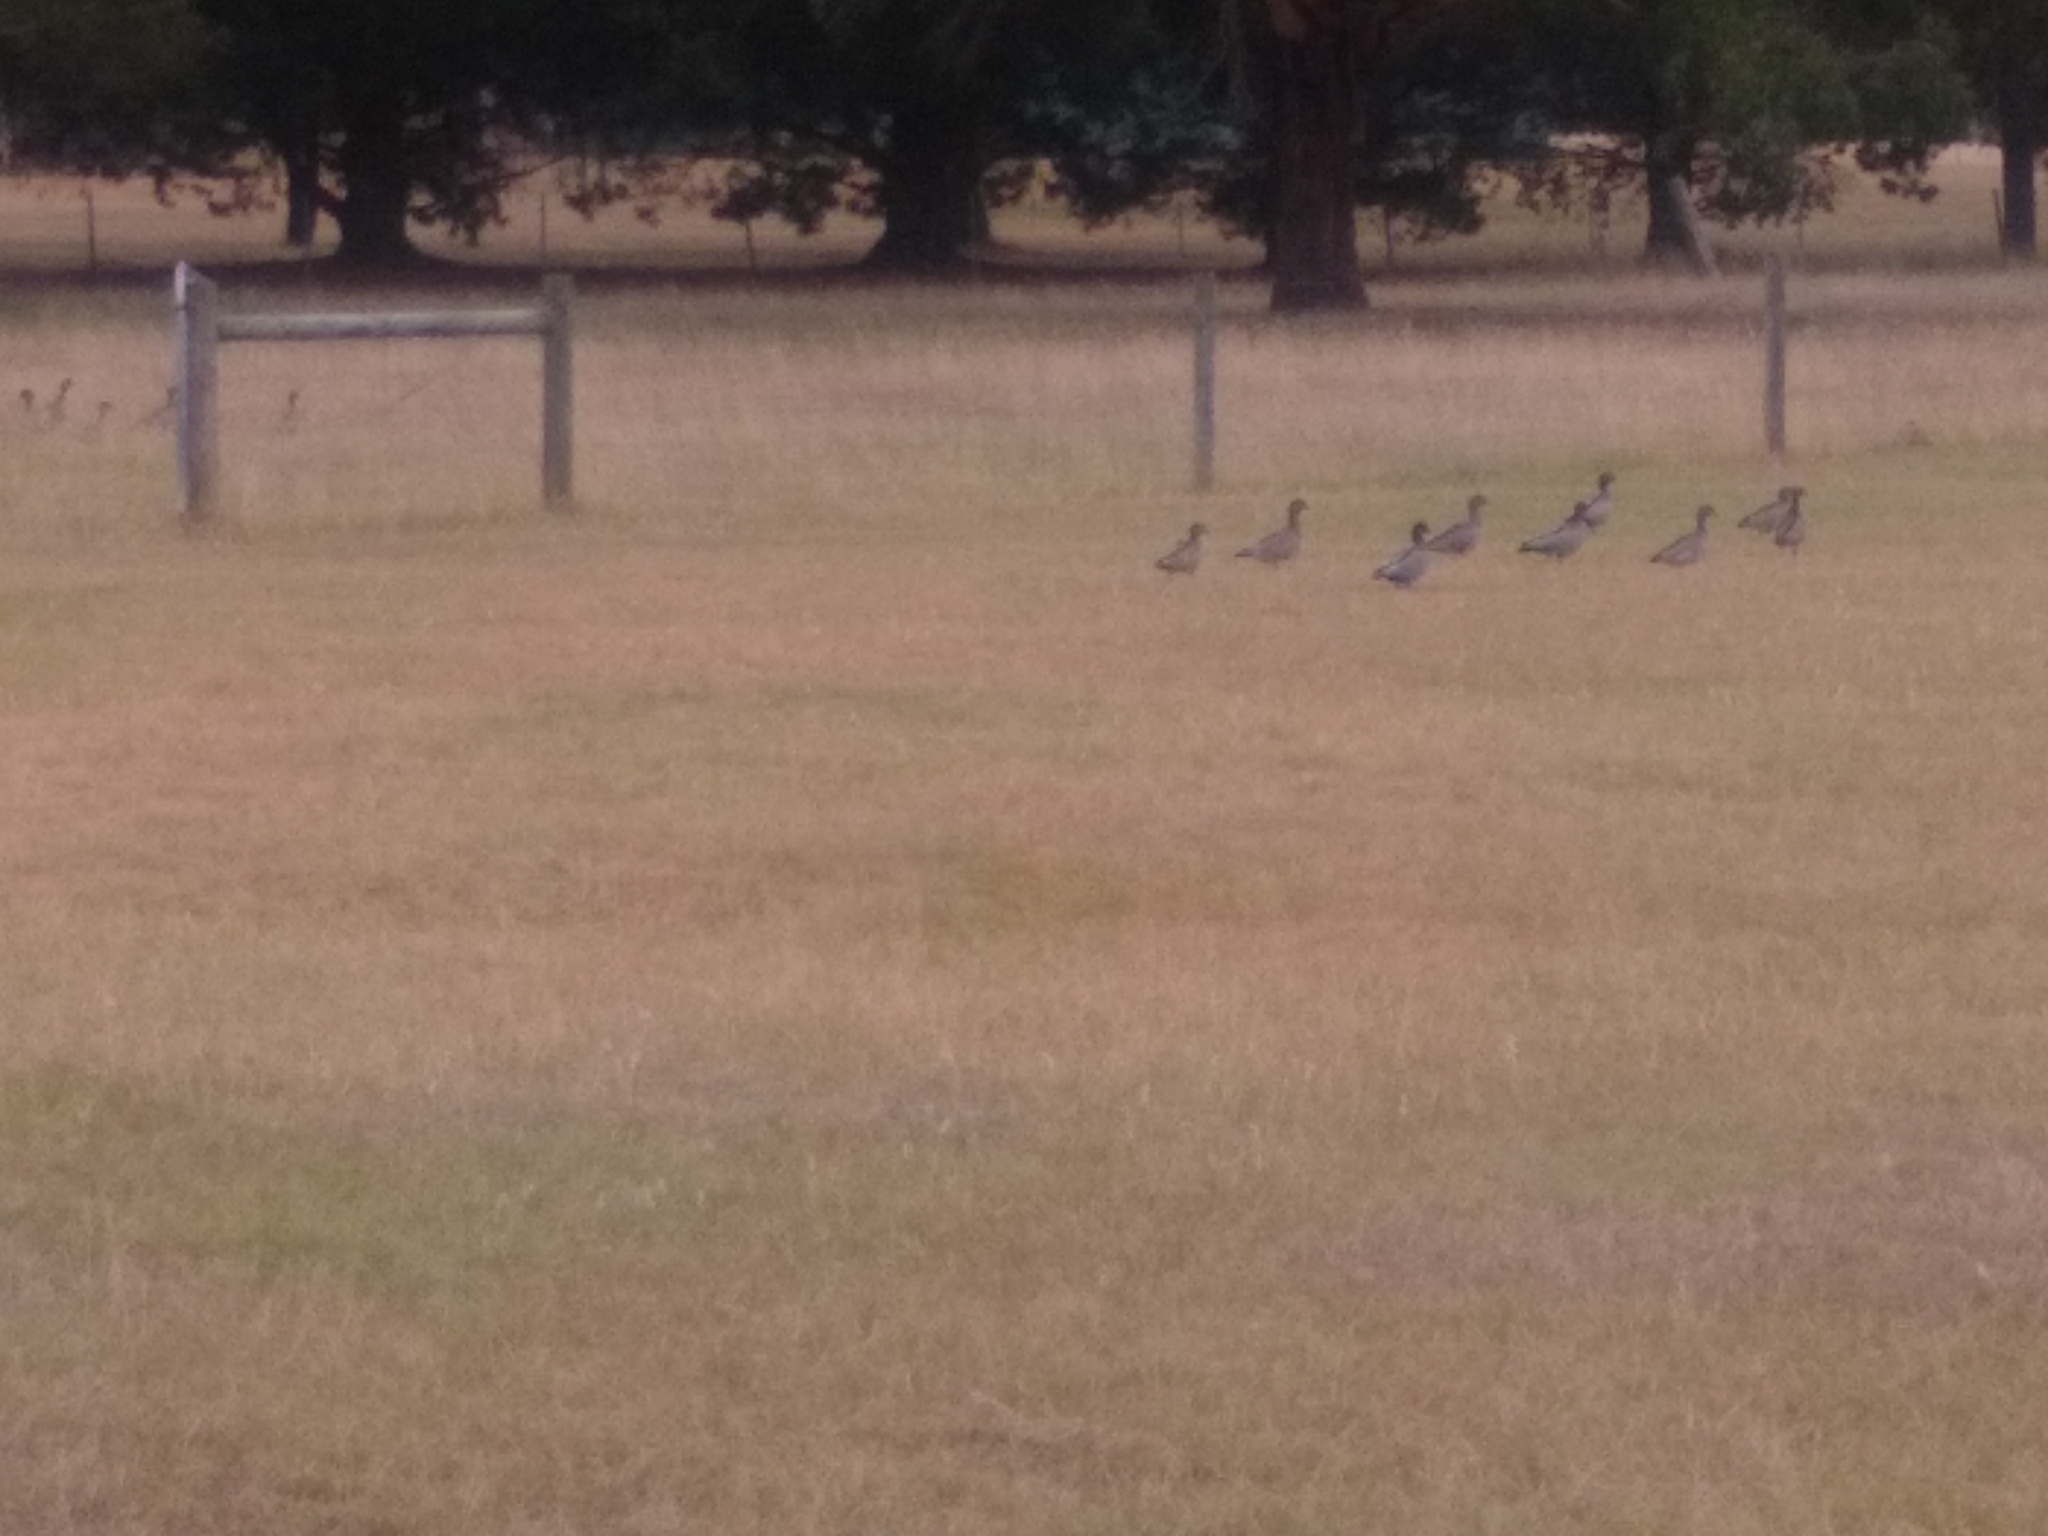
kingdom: Animalia
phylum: Chordata
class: Aves
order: Anseriformes
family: Anatidae
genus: Chenonetta
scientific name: Chenonetta jubata
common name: Maned duck
